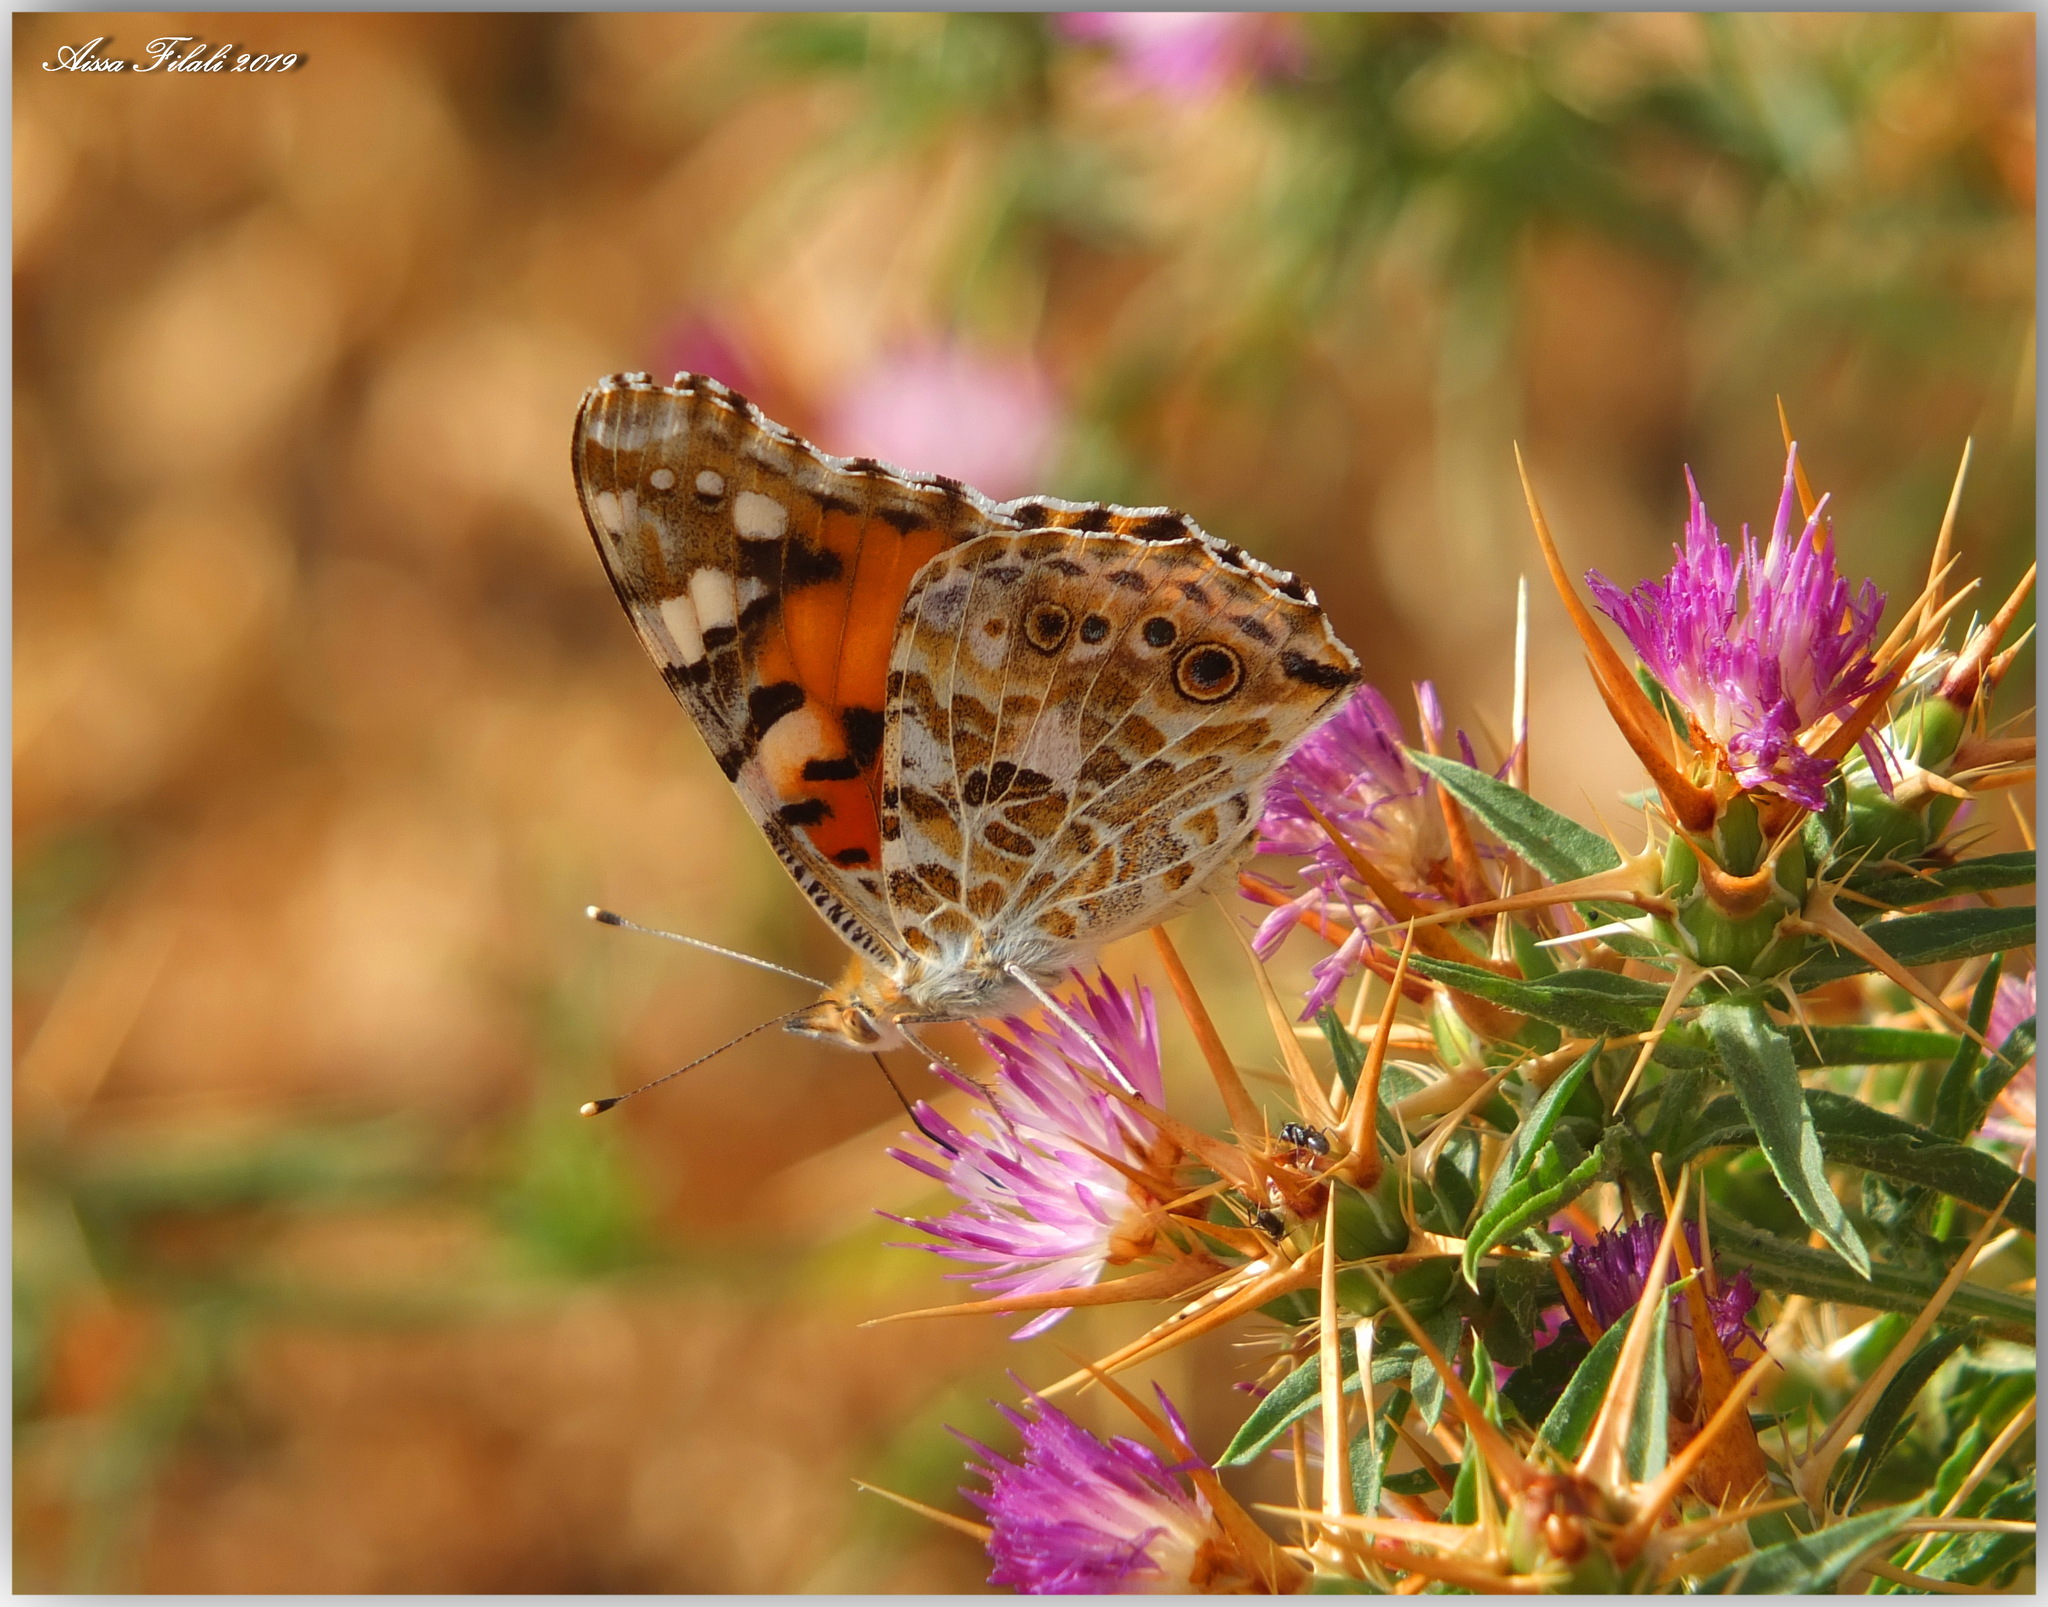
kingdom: Animalia
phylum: Arthropoda
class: Insecta
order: Lepidoptera
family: Nymphalidae
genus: Vanessa
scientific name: Vanessa cardui
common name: Painted lady
